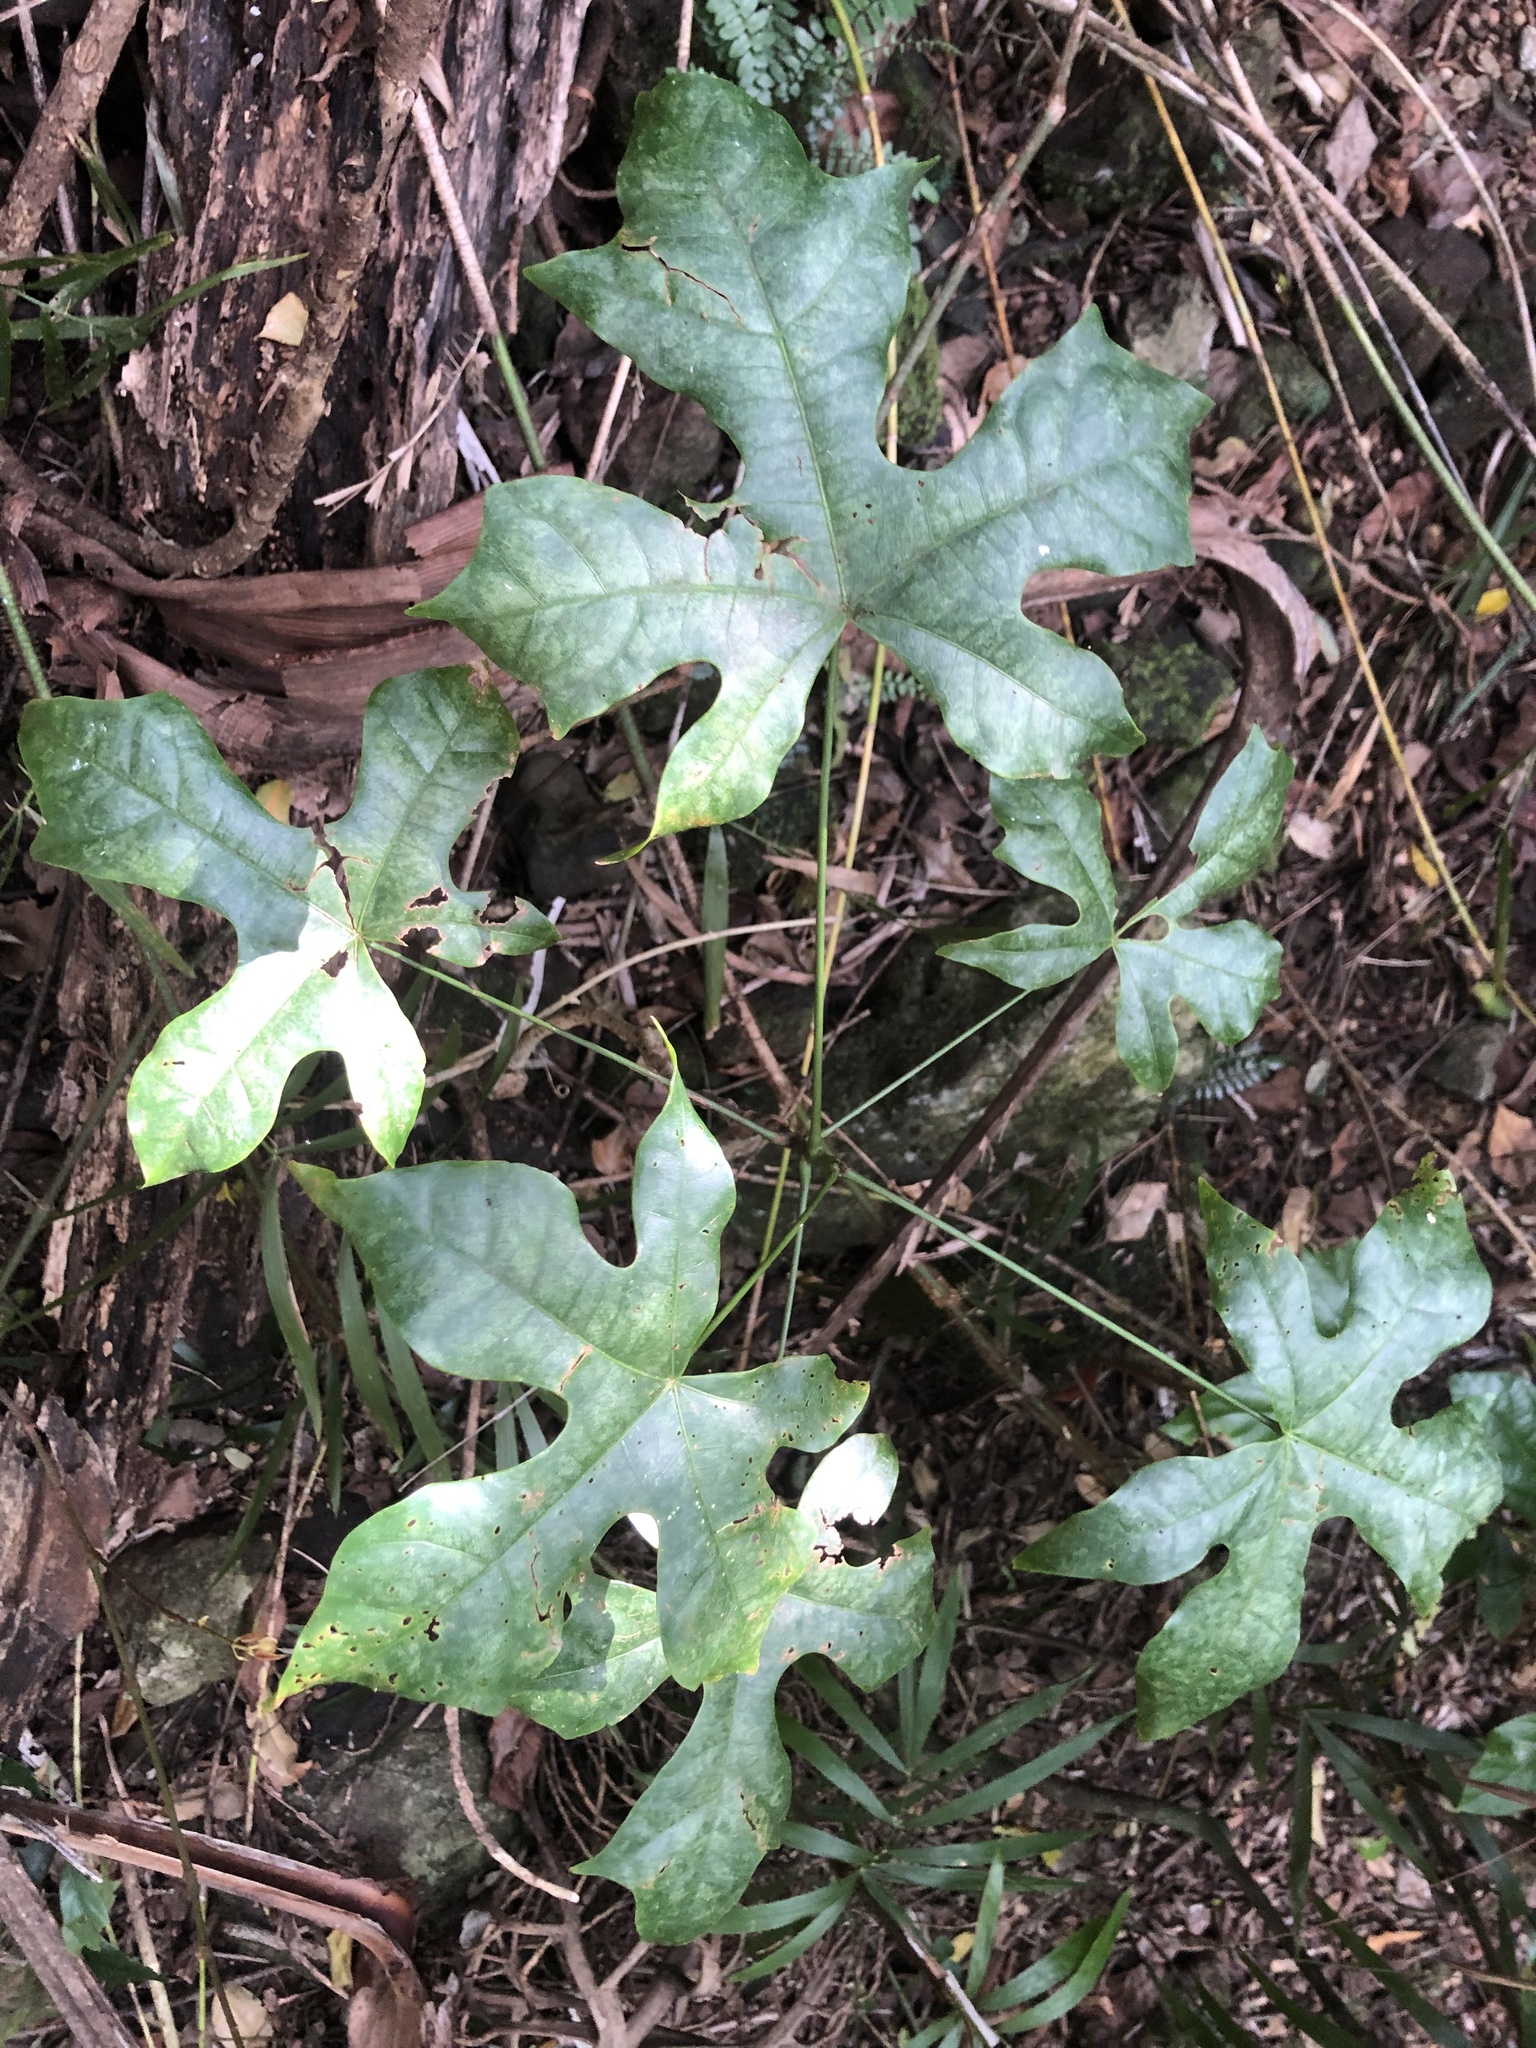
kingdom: Plantae
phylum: Tracheophyta
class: Magnoliopsida
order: Malvales
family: Malvaceae
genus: Brachychiton
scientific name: Brachychiton acerifolius
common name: Illawarra flame tree
